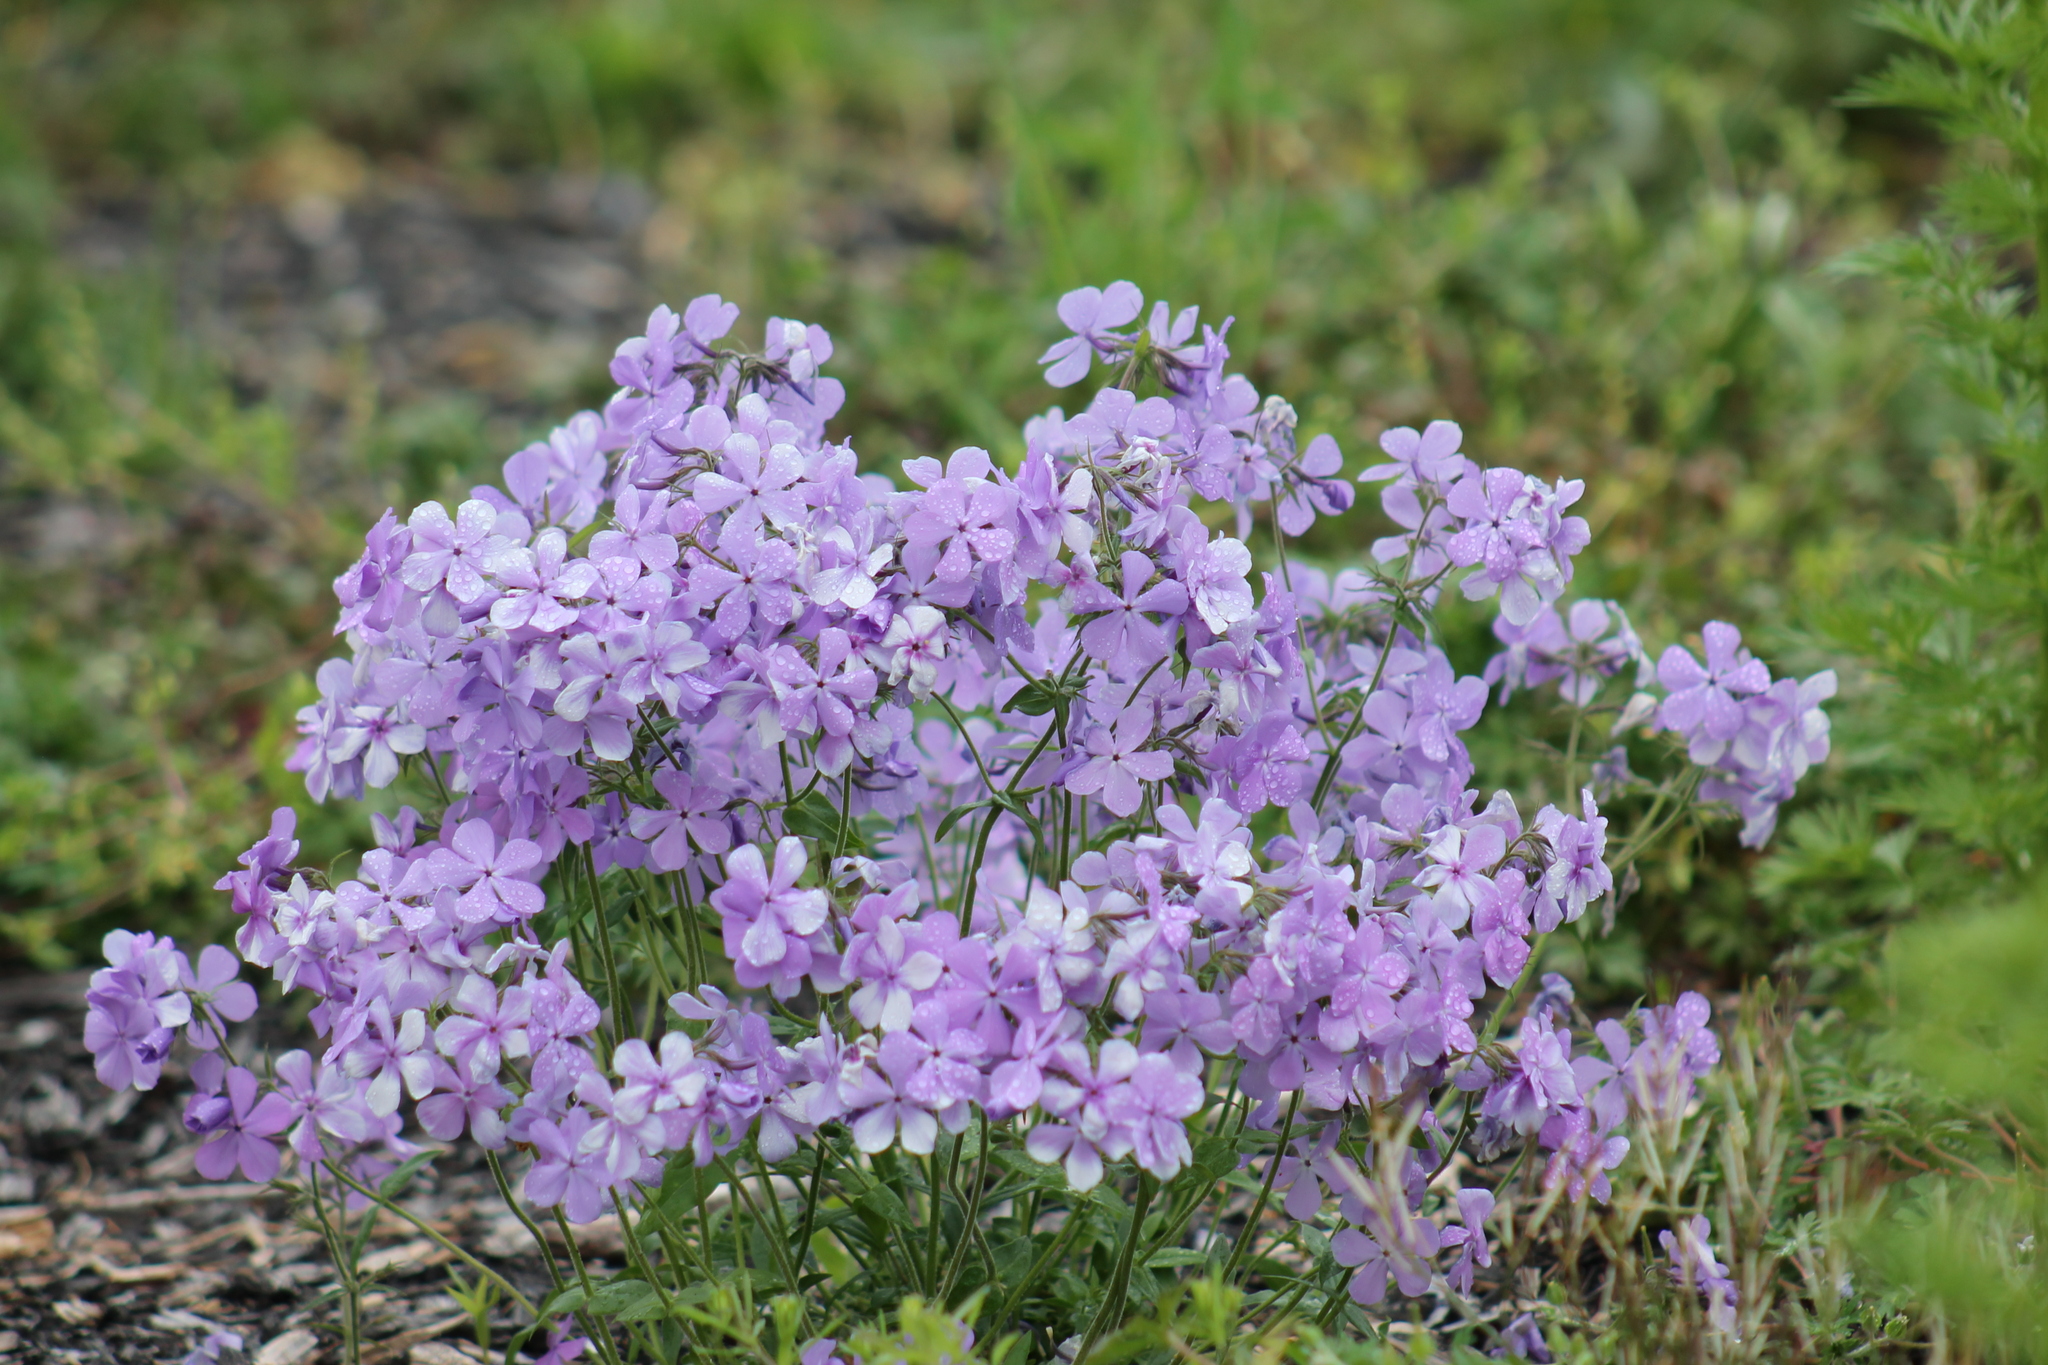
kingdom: Plantae
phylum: Tracheophyta
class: Magnoliopsida
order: Ericales
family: Polemoniaceae
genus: Phlox
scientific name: Phlox divaricata
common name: Blue phlox
